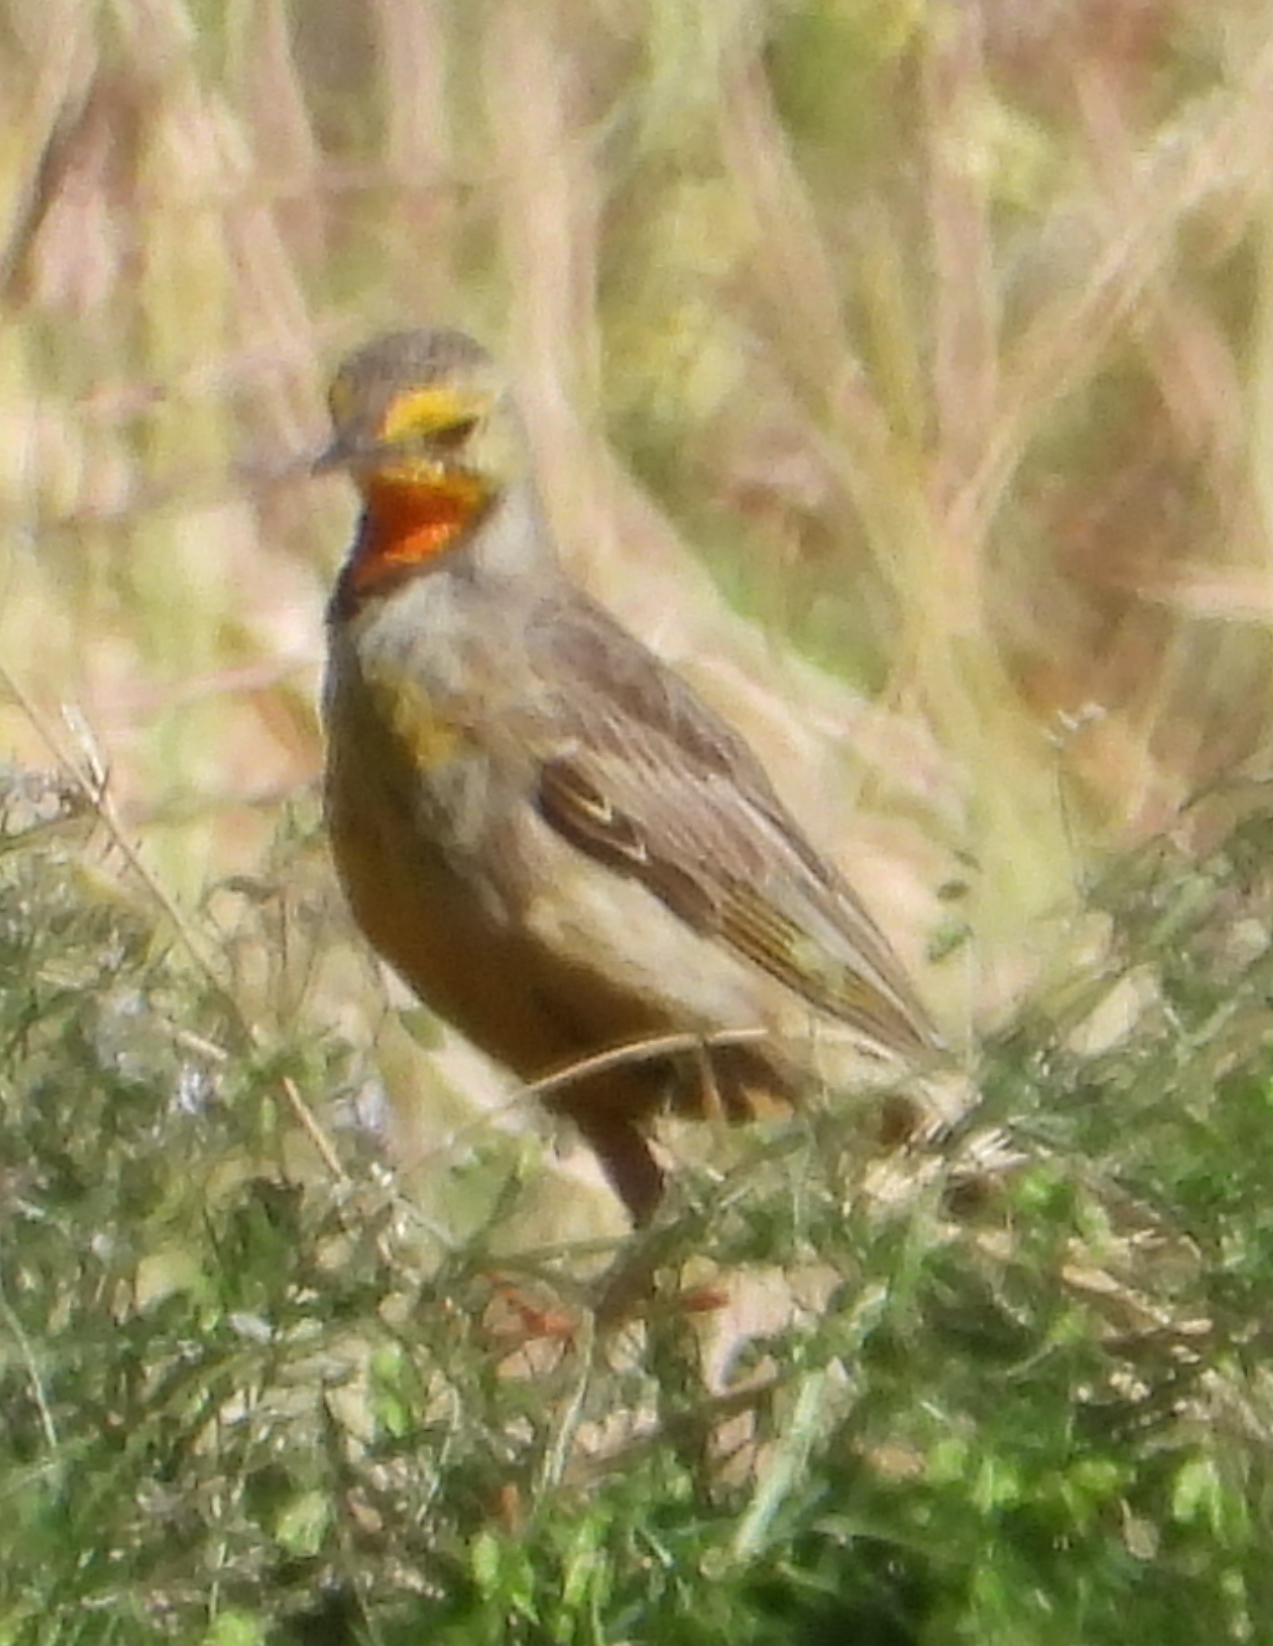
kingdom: Animalia
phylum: Chordata
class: Aves
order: Passeriformes
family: Motacillidae
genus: Macronyx
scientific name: Macronyx capensis
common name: Cape longclaw
